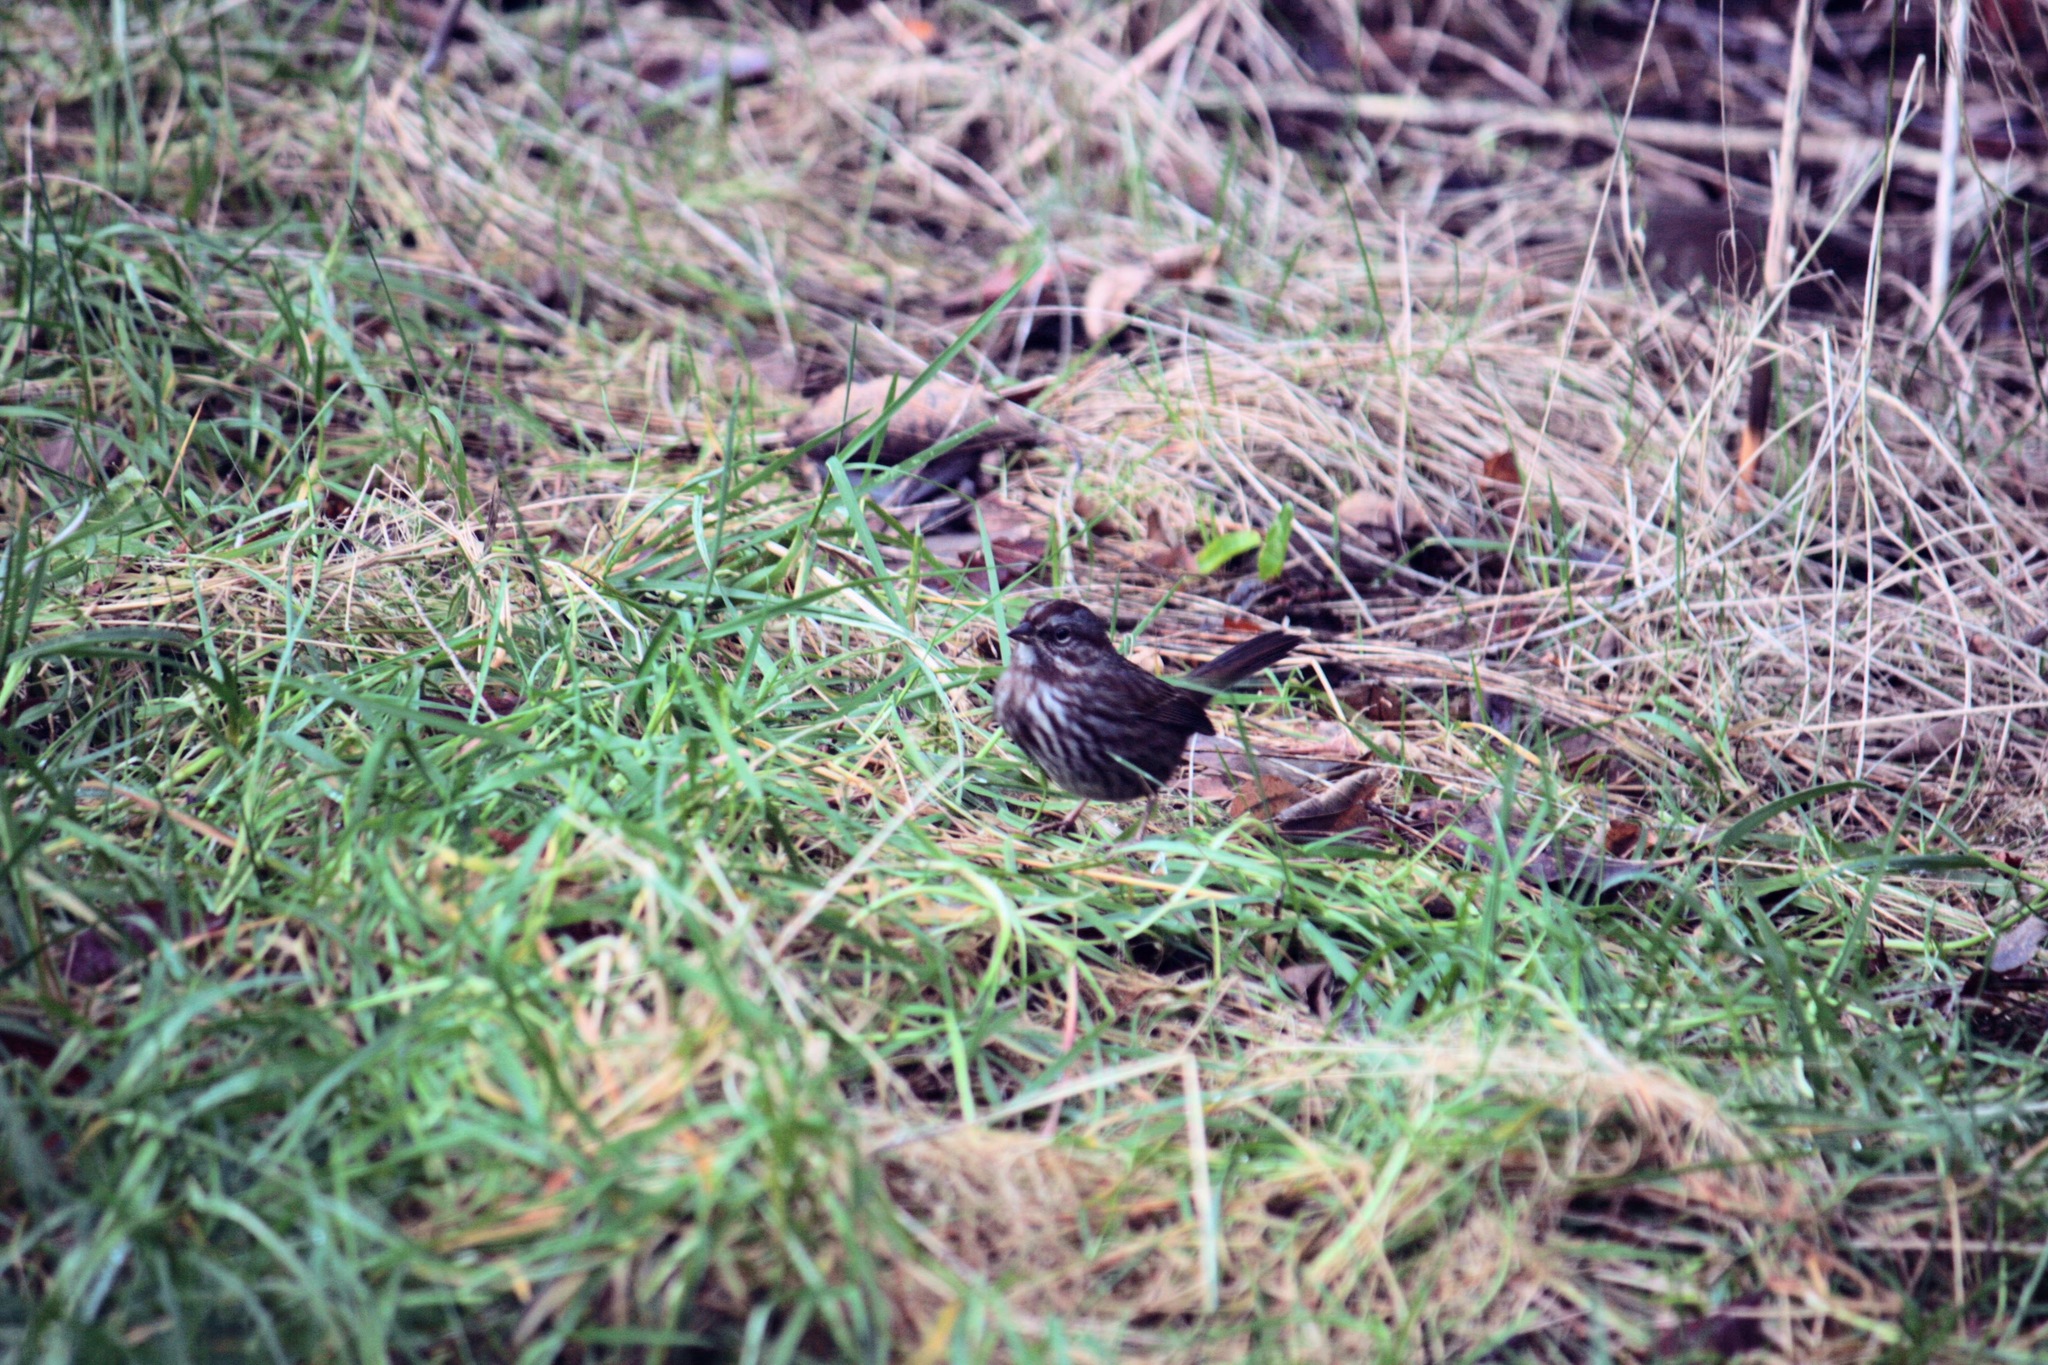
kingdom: Animalia
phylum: Chordata
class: Aves
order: Passeriformes
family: Passerellidae
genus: Melospiza
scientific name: Melospiza melodia
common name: Song sparrow
